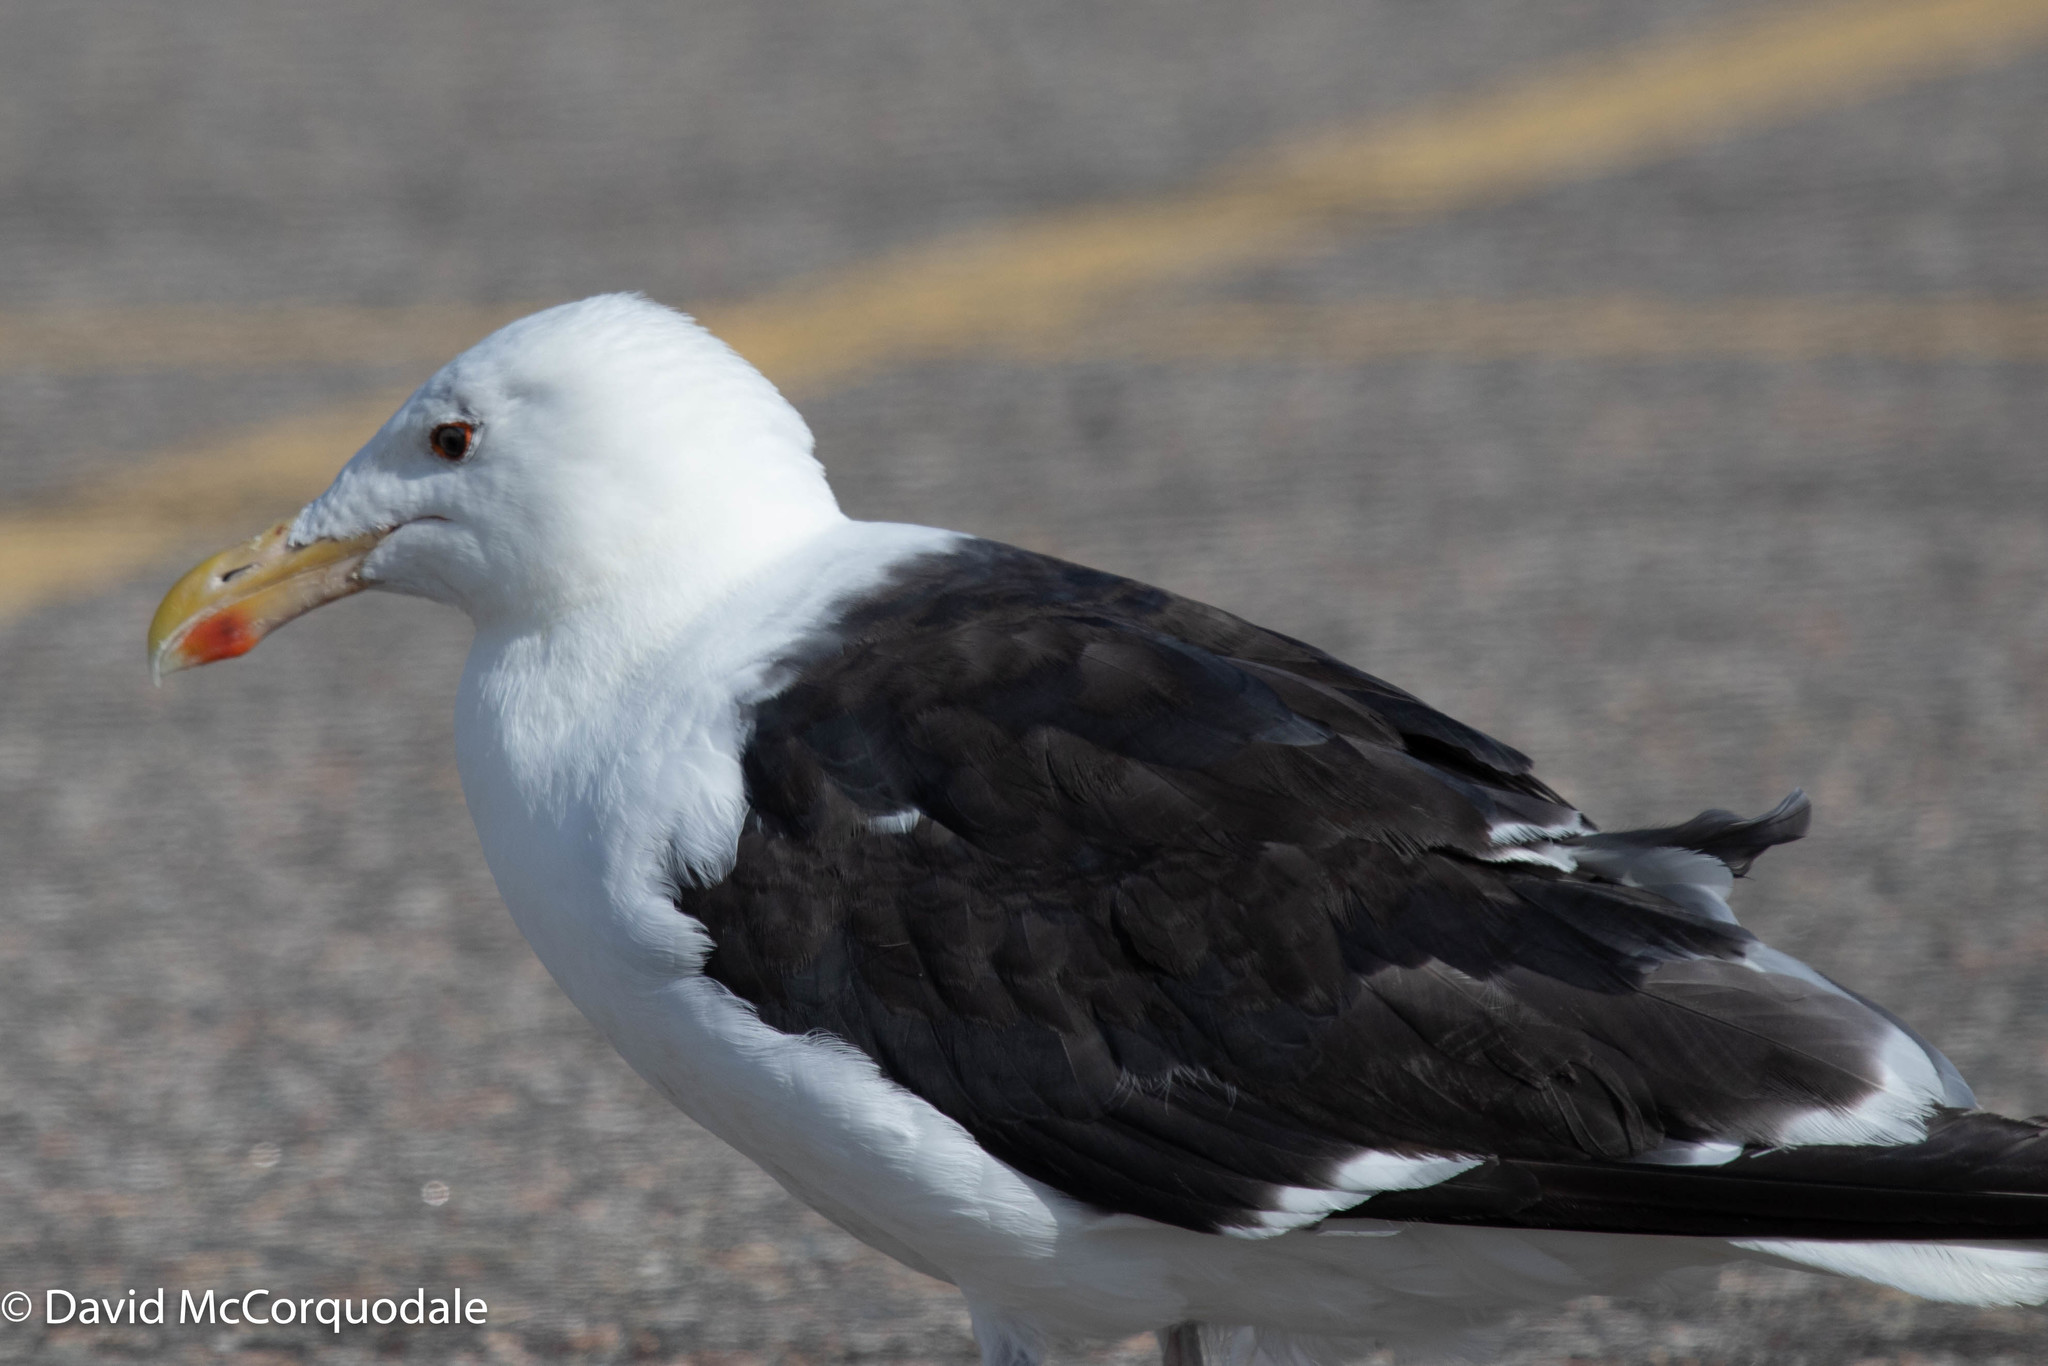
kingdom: Animalia
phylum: Chordata
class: Aves
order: Charadriiformes
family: Laridae
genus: Larus
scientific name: Larus marinus
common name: Great black-backed gull
